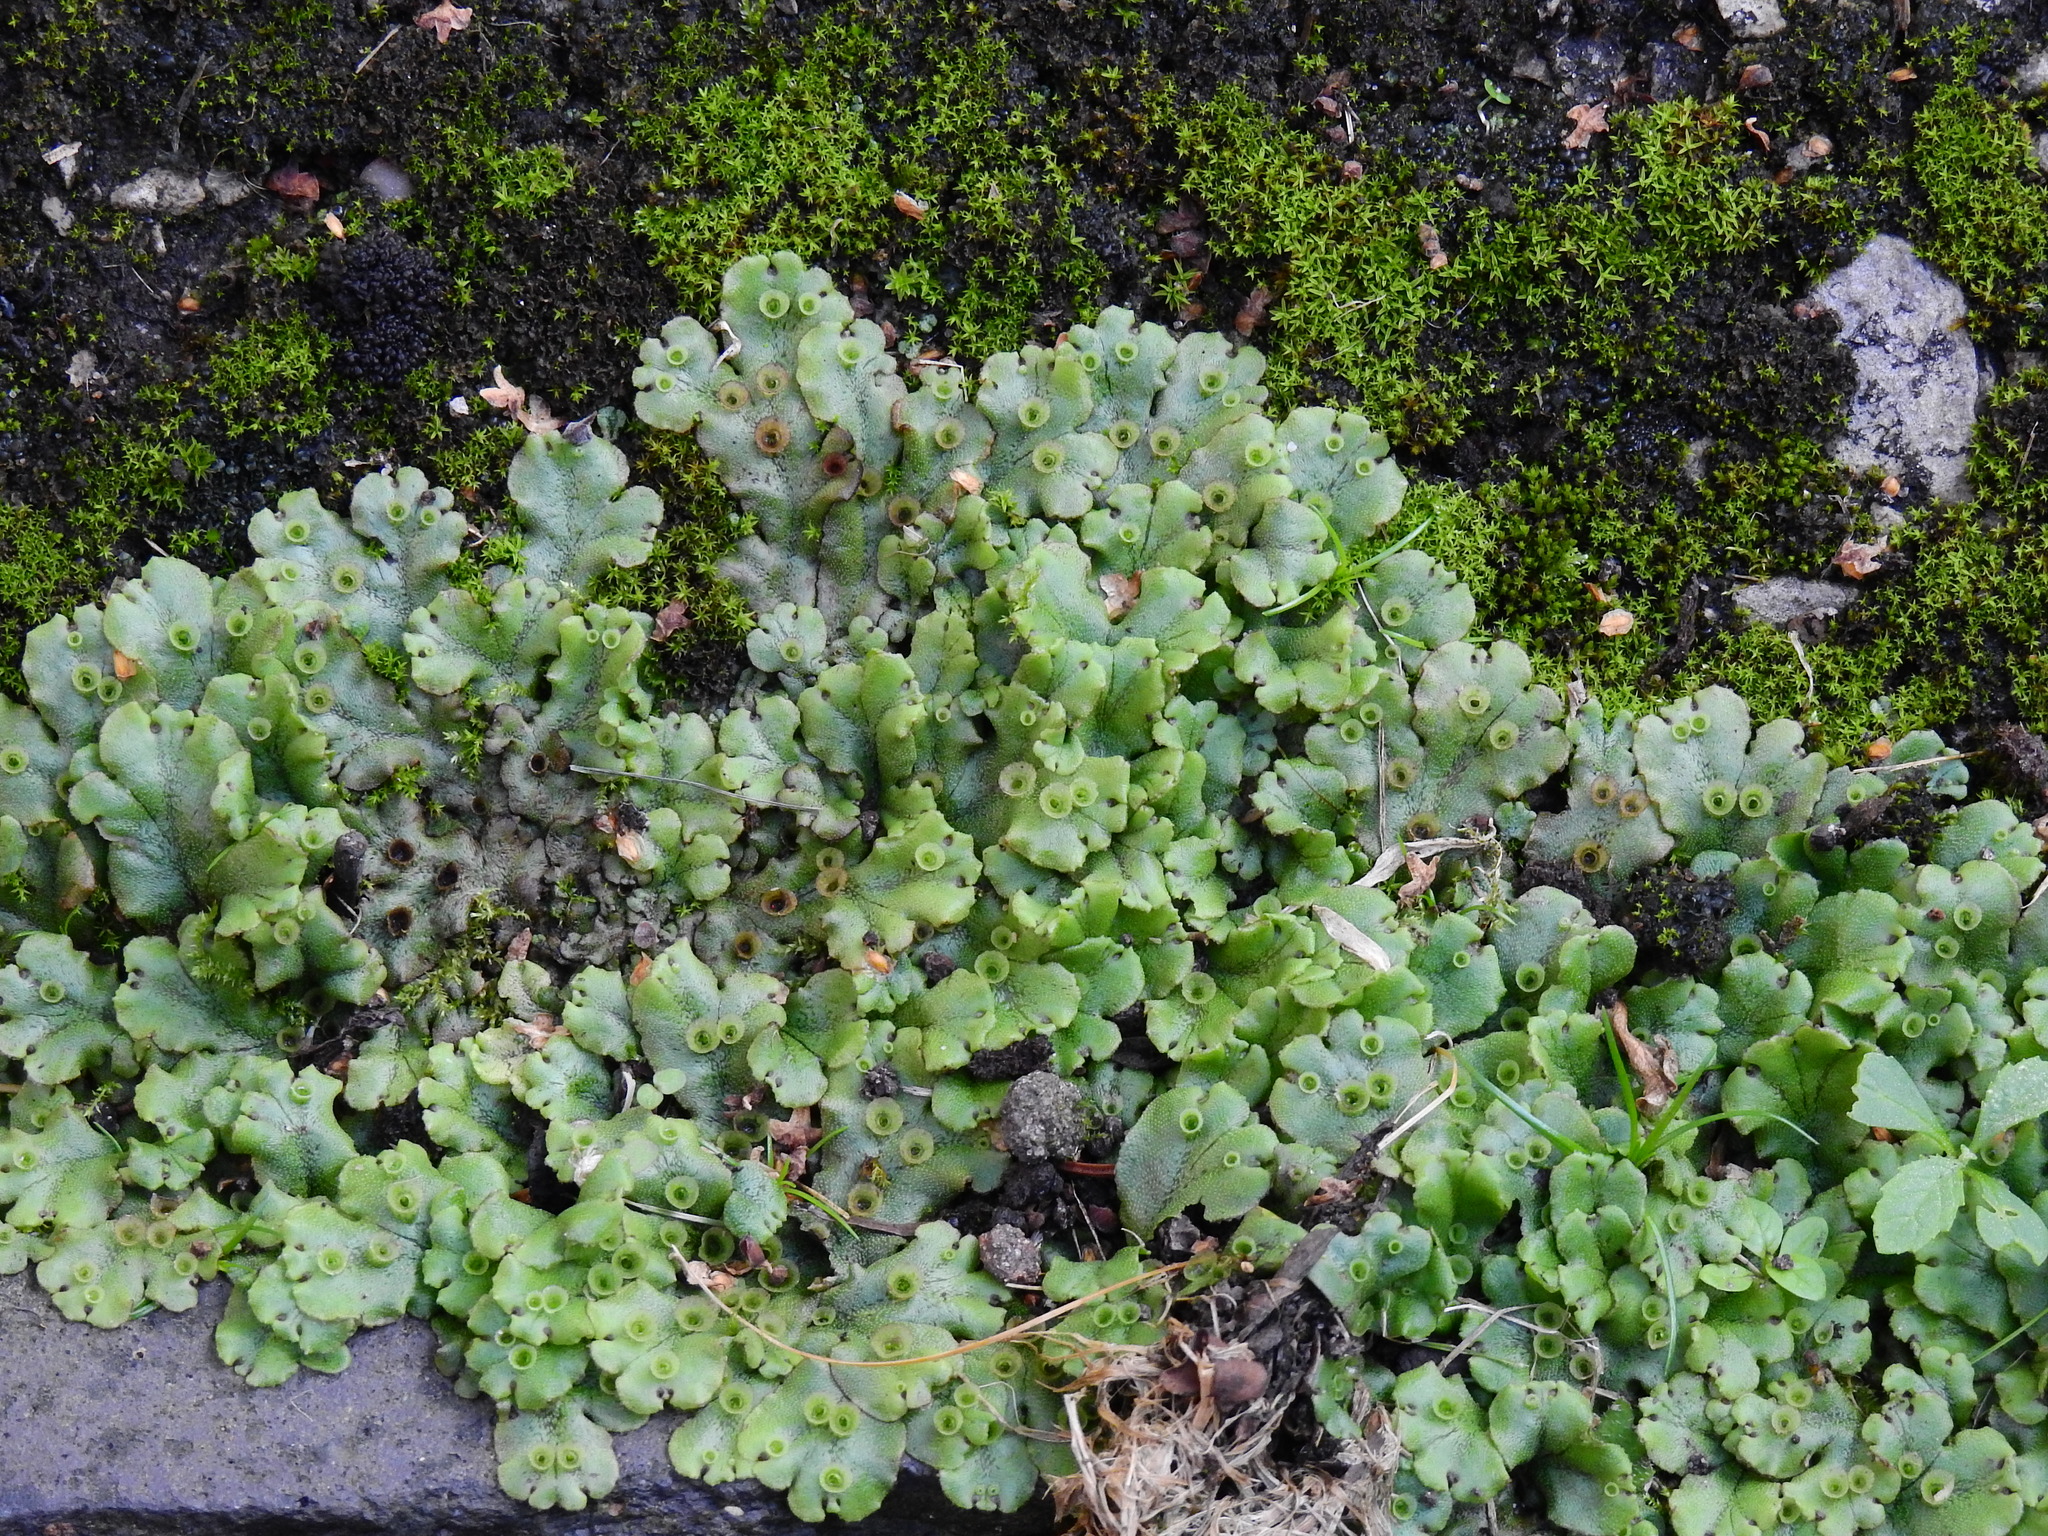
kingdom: Plantae
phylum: Marchantiophyta
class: Marchantiopsida
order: Marchantiales
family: Marchantiaceae
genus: Marchantia
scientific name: Marchantia polymorpha
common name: Common liverwort
